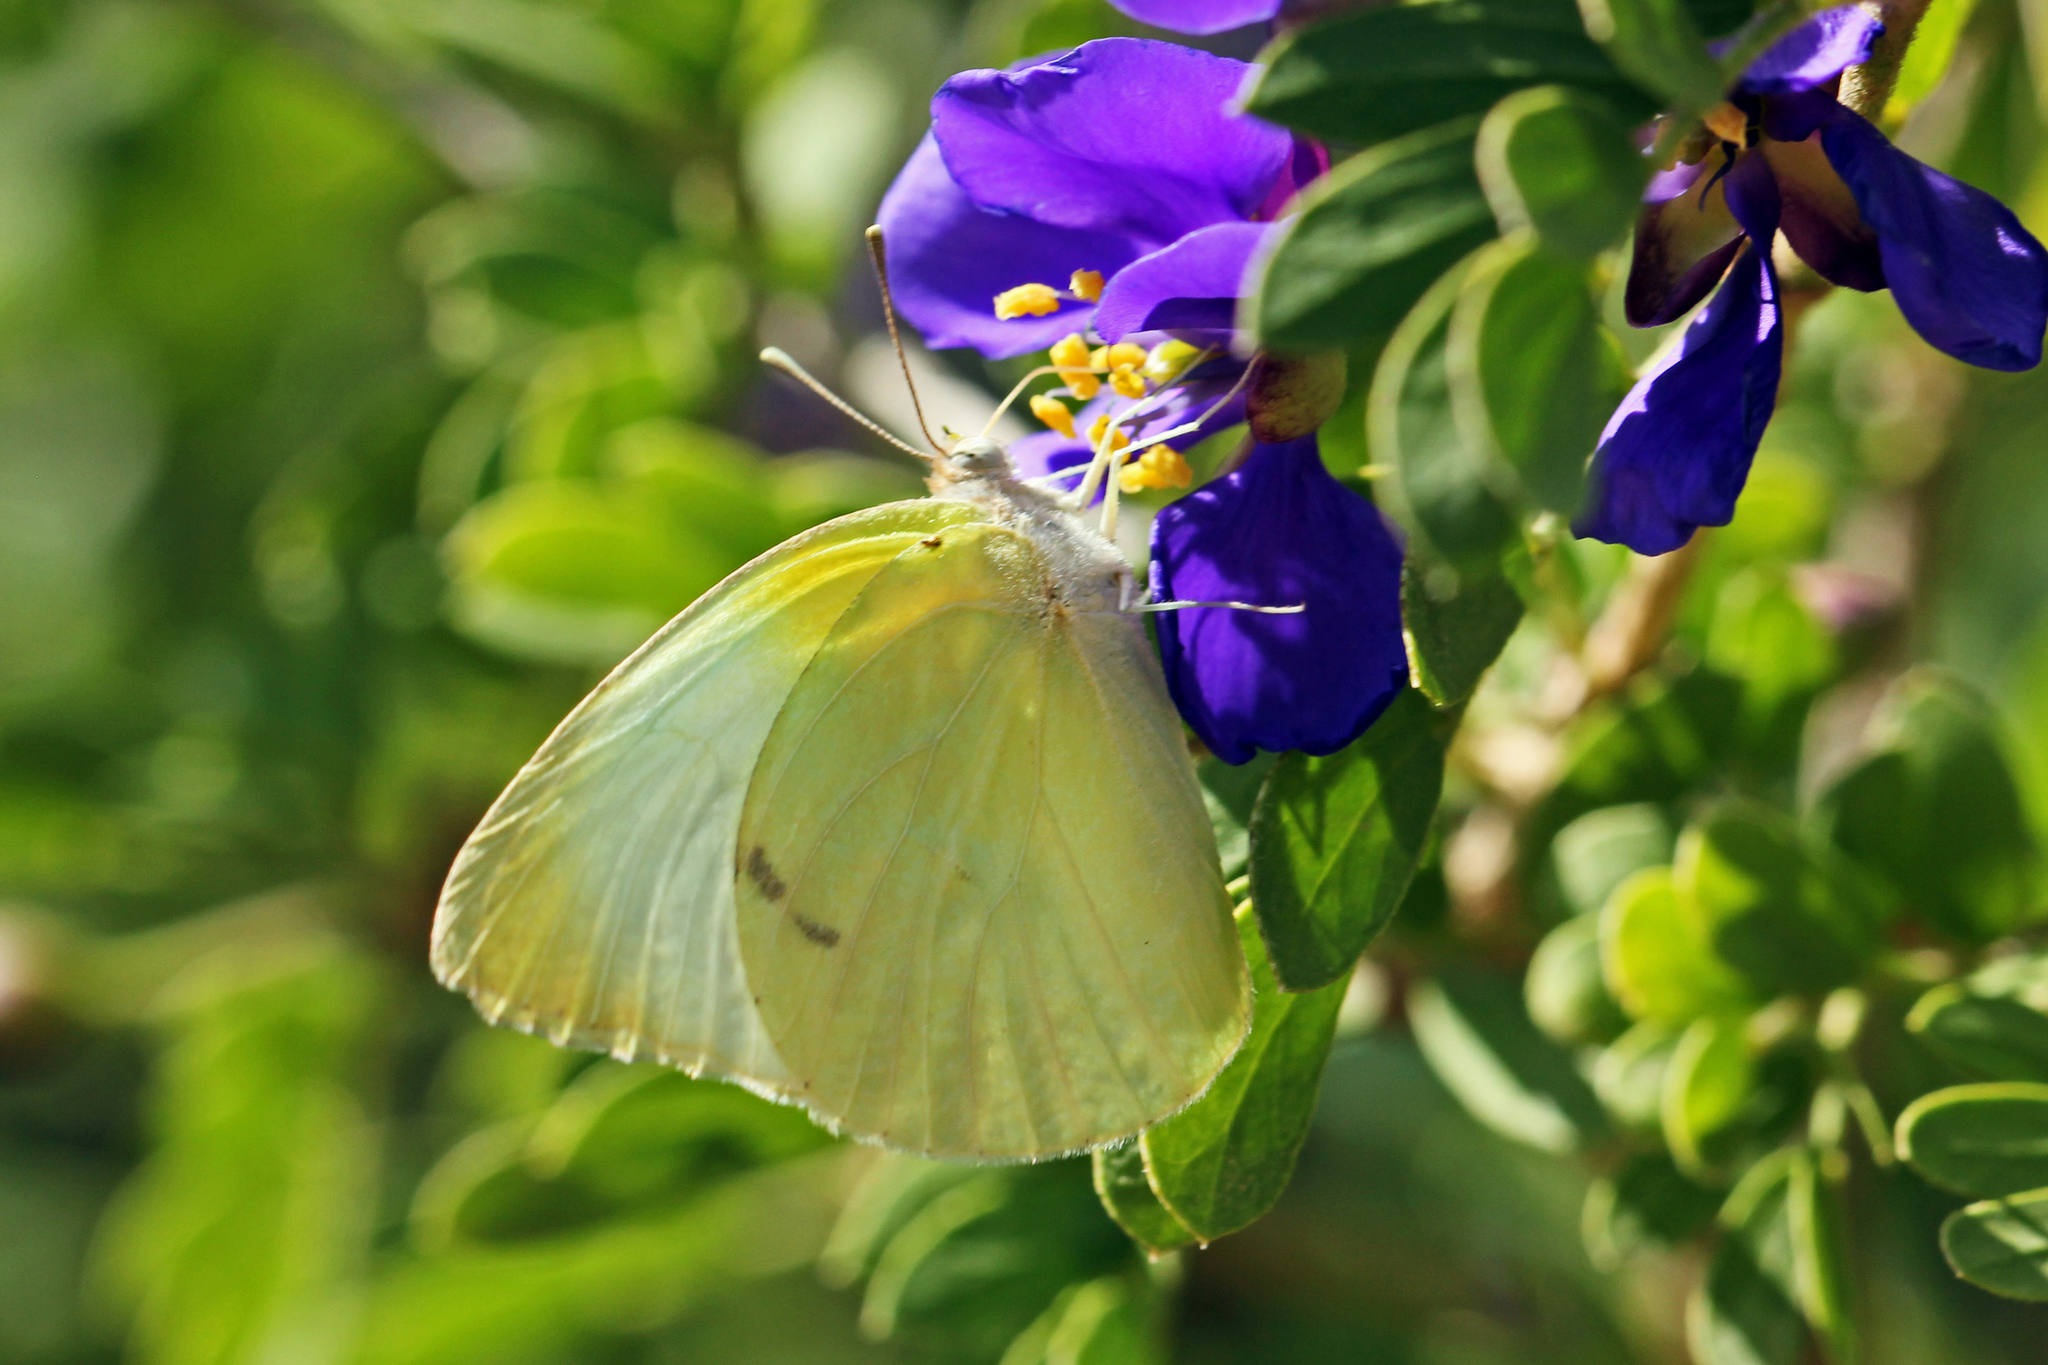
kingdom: Animalia
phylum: Arthropoda
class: Insecta
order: Lepidoptera
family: Pieridae
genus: Kricogonia
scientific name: Kricogonia lyside
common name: Guayacan sulphur,
